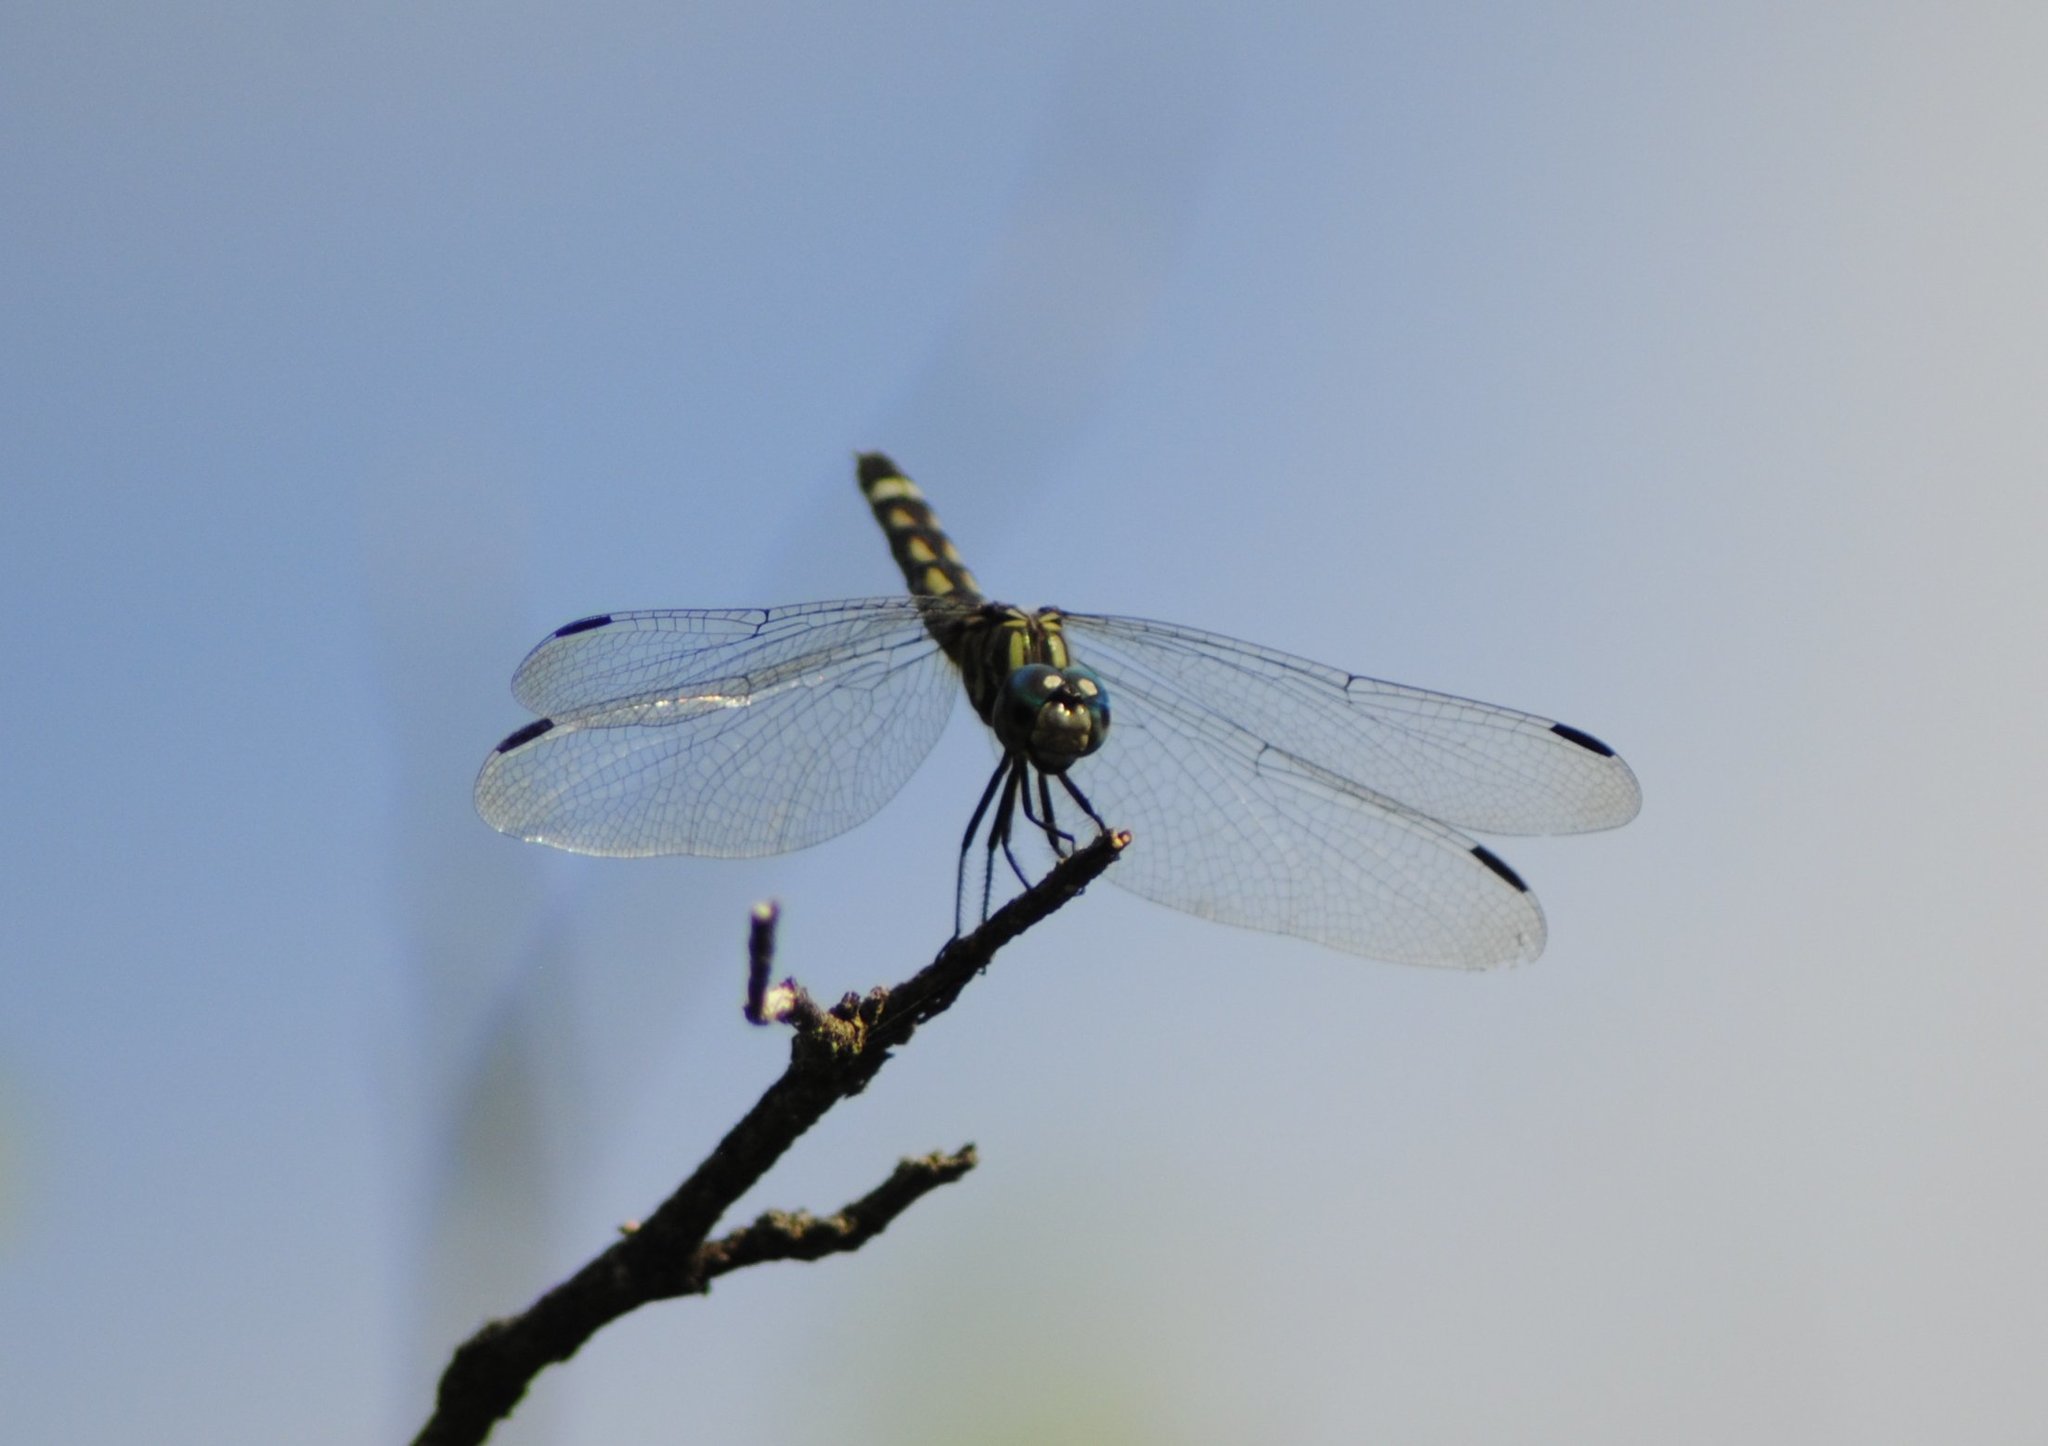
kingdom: Animalia
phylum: Arthropoda
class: Insecta
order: Odonata
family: Libellulidae
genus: Micrathyria
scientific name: Micrathyria hagenii
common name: Thornbush dasher
